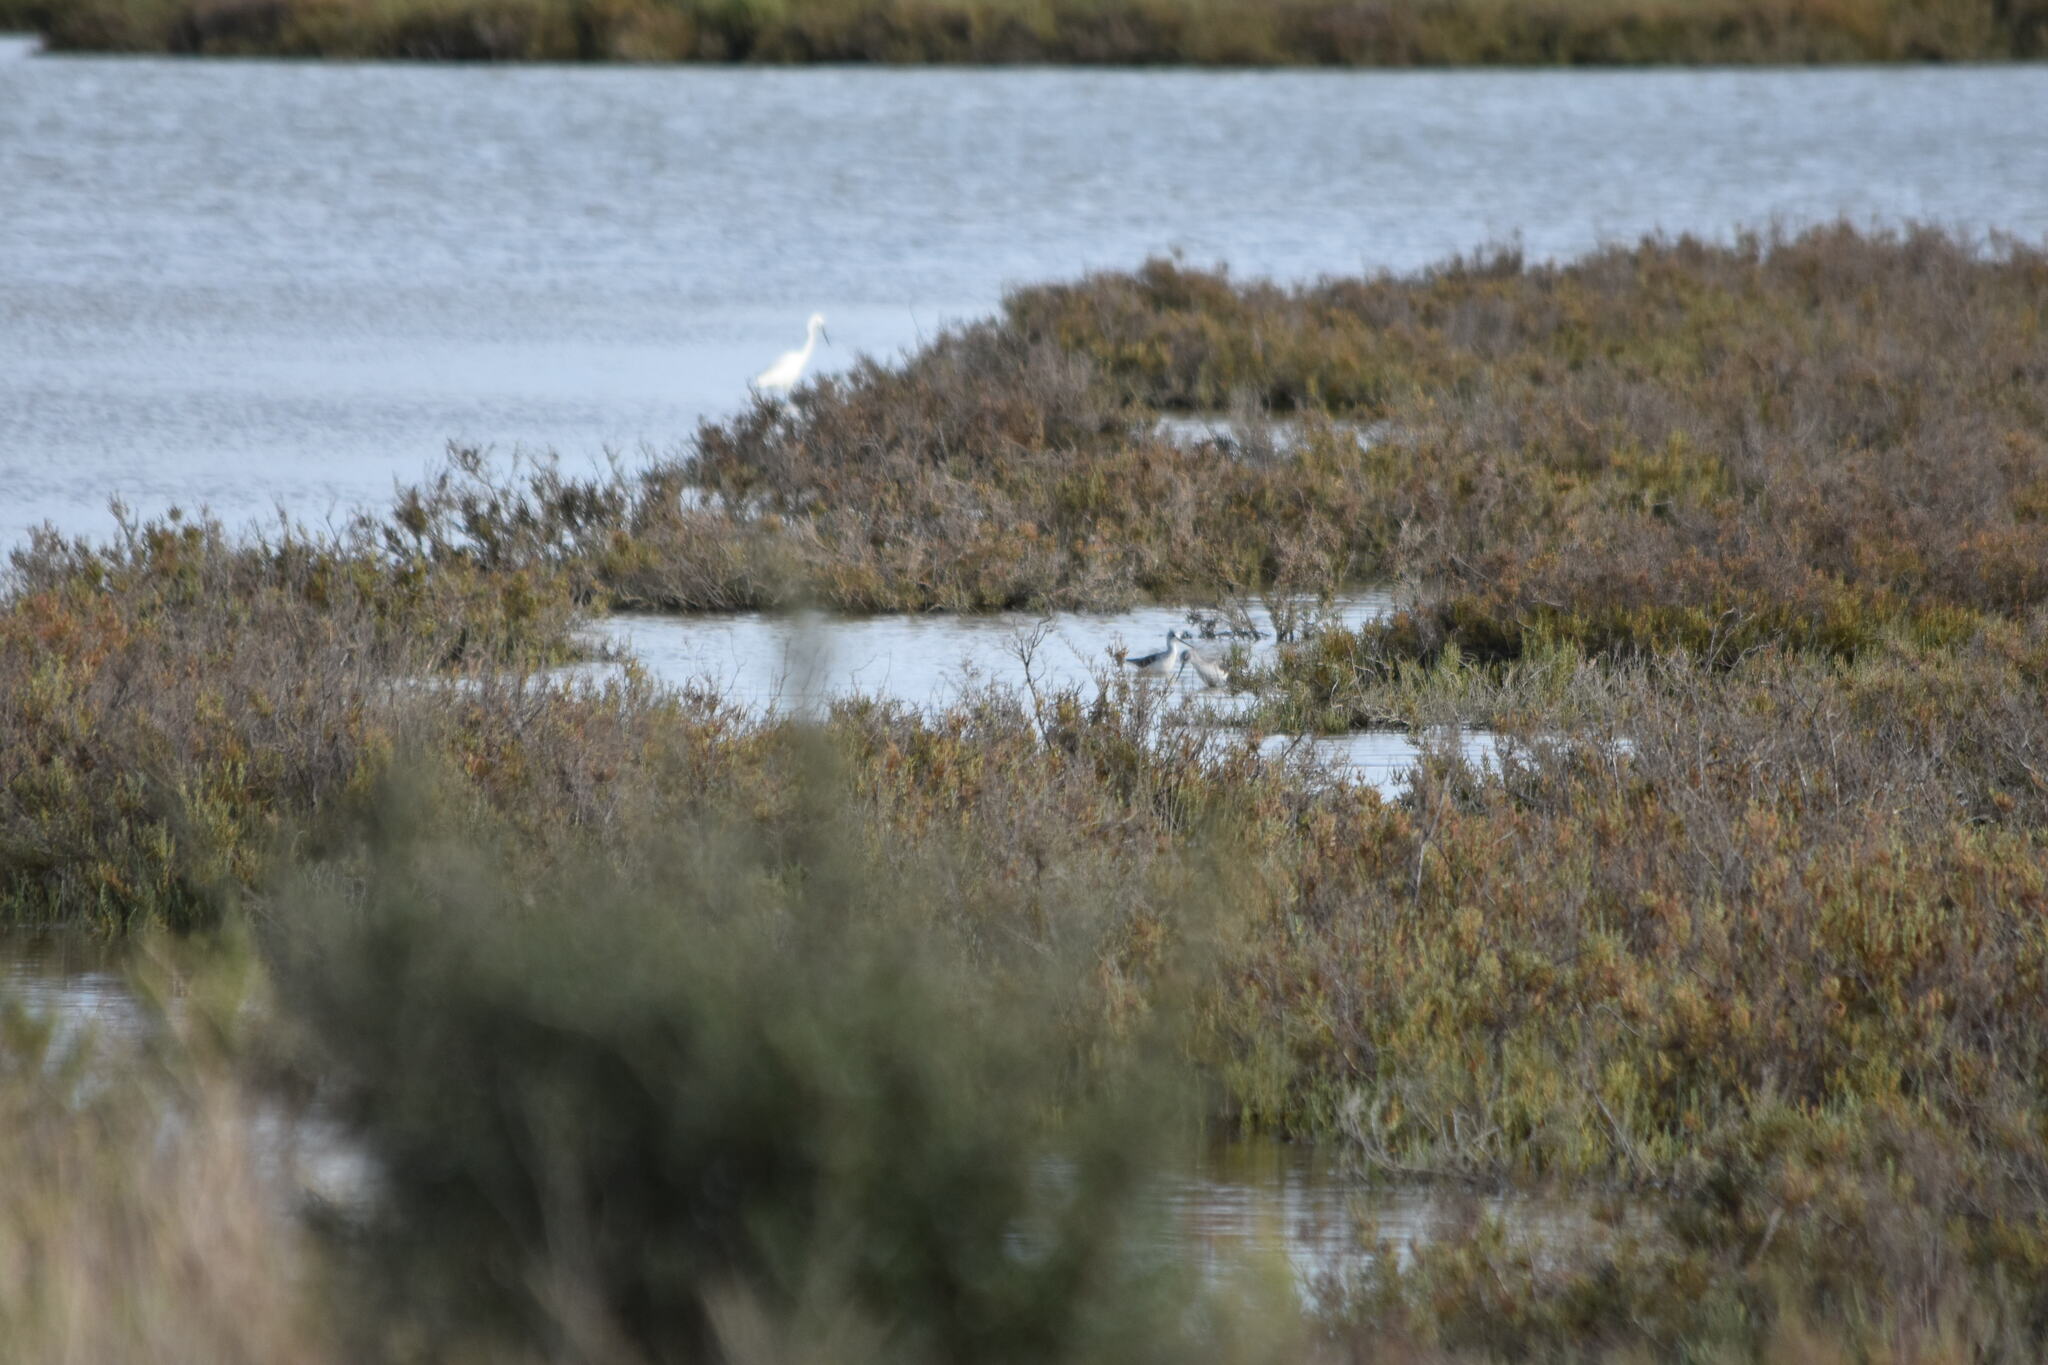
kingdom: Animalia
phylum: Chordata
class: Aves
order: Charadriiformes
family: Recurvirostridae
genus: Himantopus
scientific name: Himantopus himantopus
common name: Black-winged stilt
